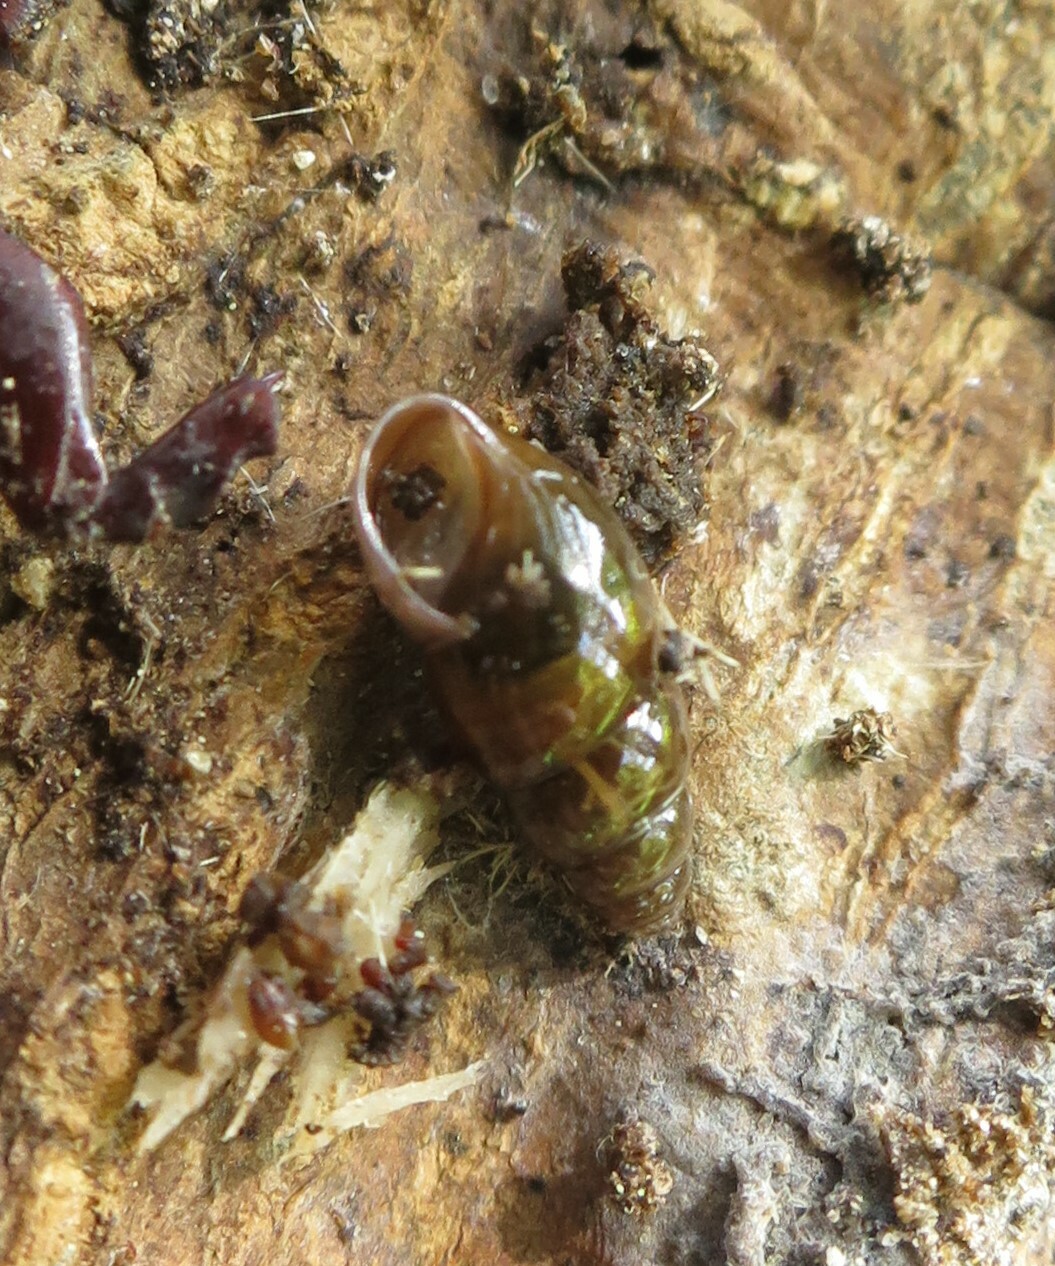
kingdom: Animalia
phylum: Mollusca
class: Gastropoda
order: Stylommatophora
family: Cochlicopidae
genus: Cochlicopa
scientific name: Cochlicopa lubrica
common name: Glossy pillar snail
